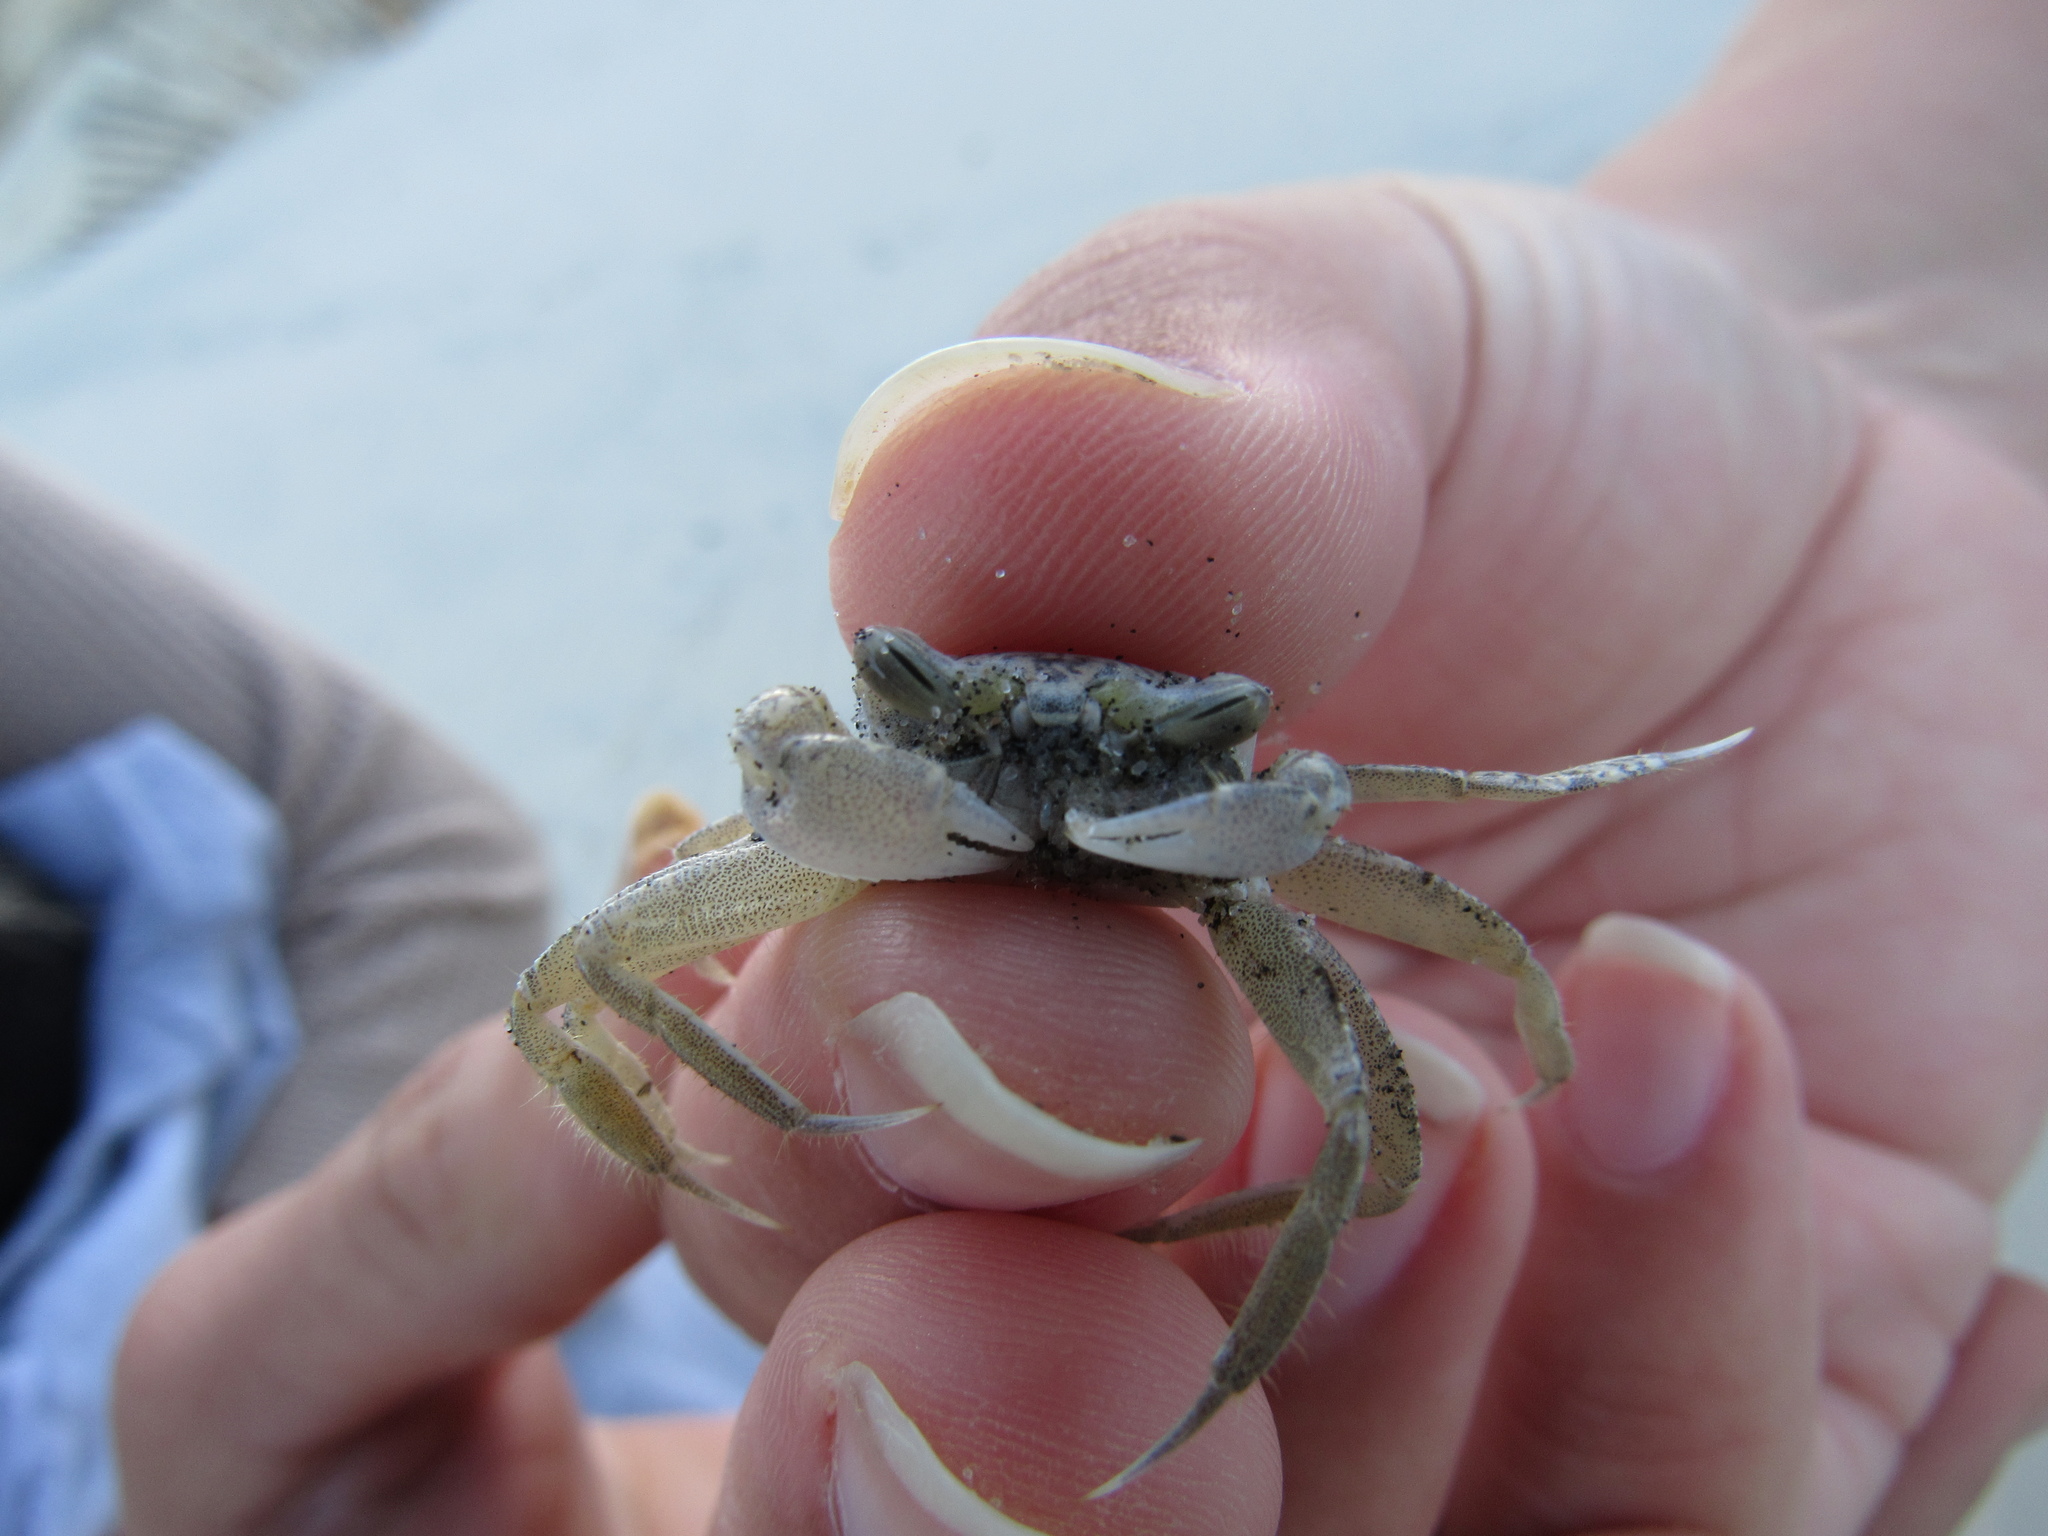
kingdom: Animalia
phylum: Arthropoda
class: Malacostraca
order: Decapoda
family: Ocypodidae
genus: Ocypode
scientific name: Ocypode quadrata
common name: Ghost crab
